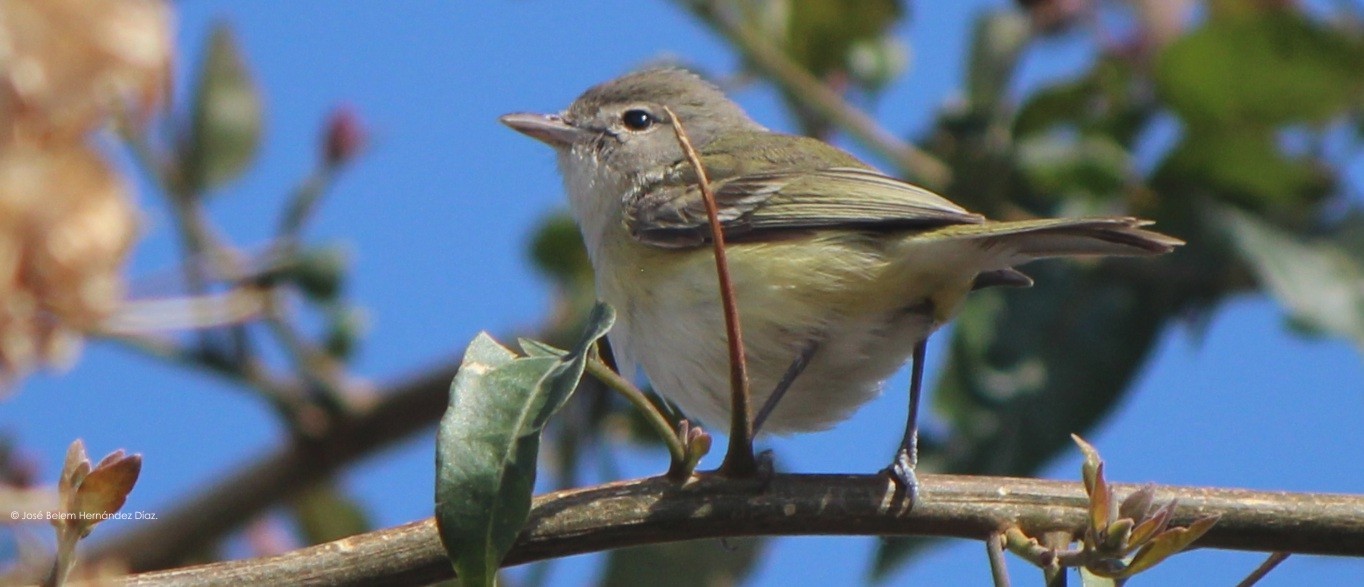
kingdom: Animalia
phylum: Chordata
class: Aves
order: Passeriformes
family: Vireonidae
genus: Vireo
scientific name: Vireo bellii
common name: Bell's vireo
